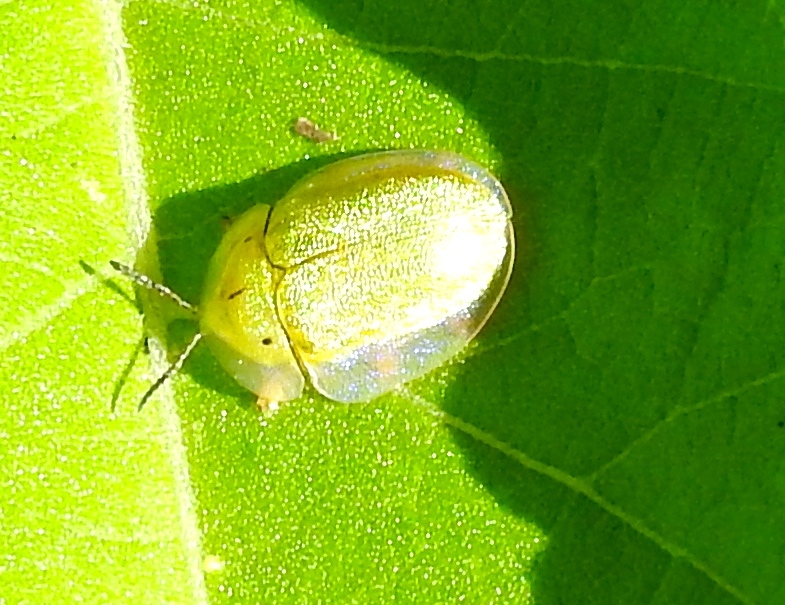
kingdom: Animalia
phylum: Arthropoda
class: Insecta
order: Coleoptera
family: Chrysomelidae
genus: Physonota
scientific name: Physonota arizonae
